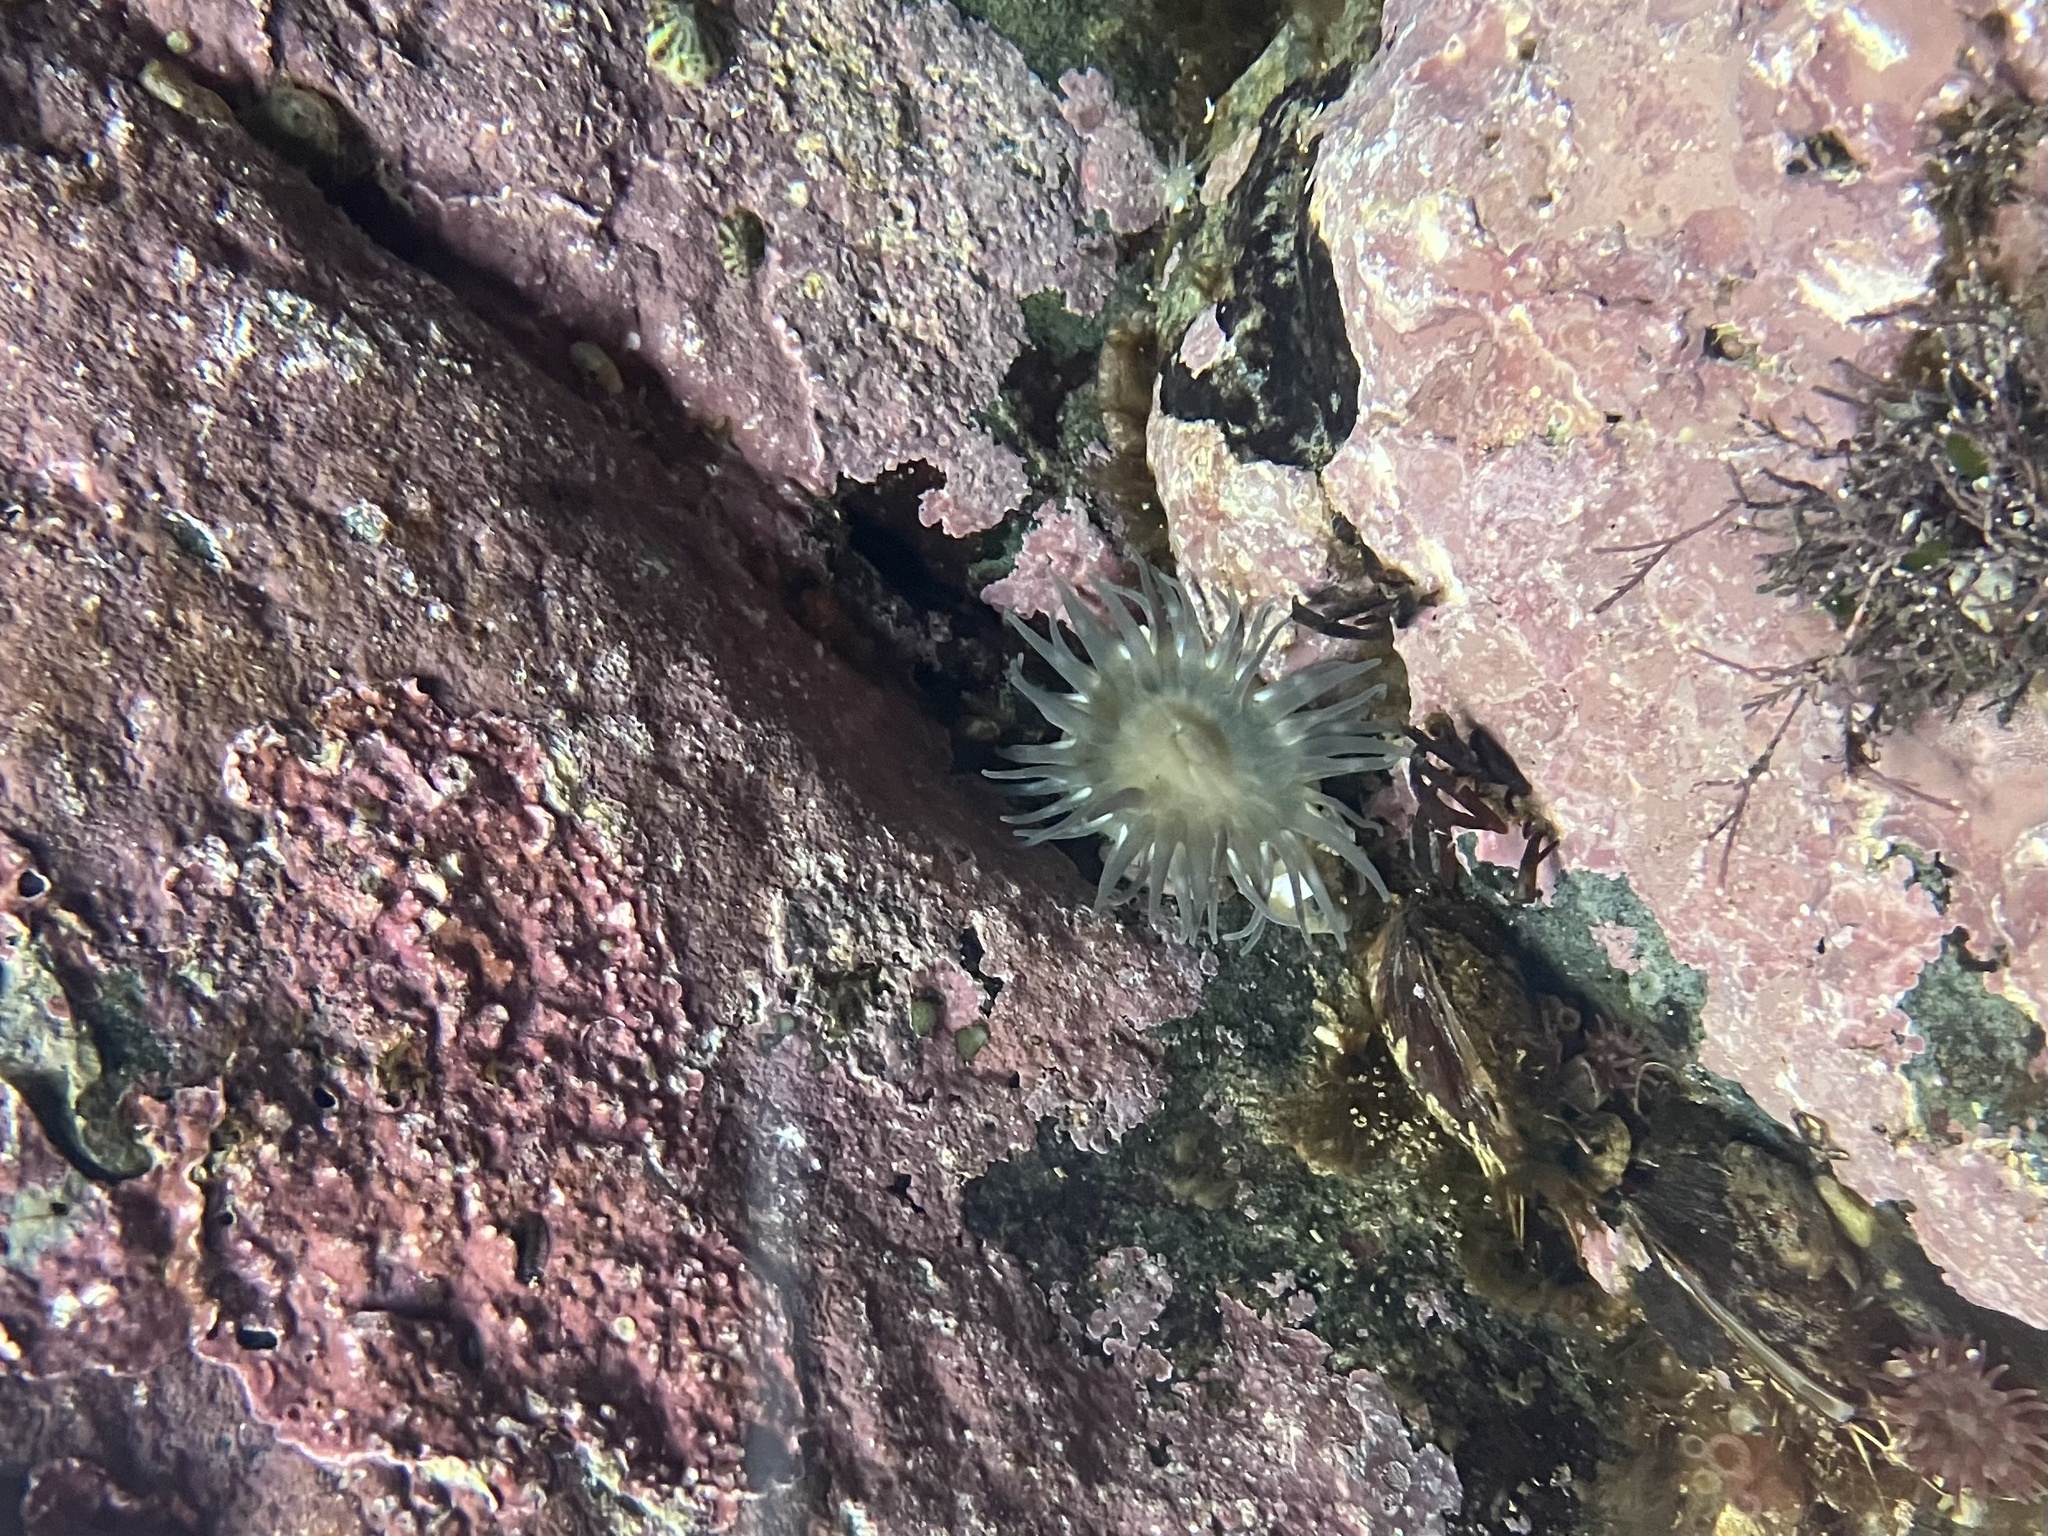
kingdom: Animalia
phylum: Cnidaria
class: Anthozoa
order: Actiniaria
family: Actiniidae
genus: Aulactinia
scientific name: Aulactinia stella
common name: Silver-spotted sea anemone
